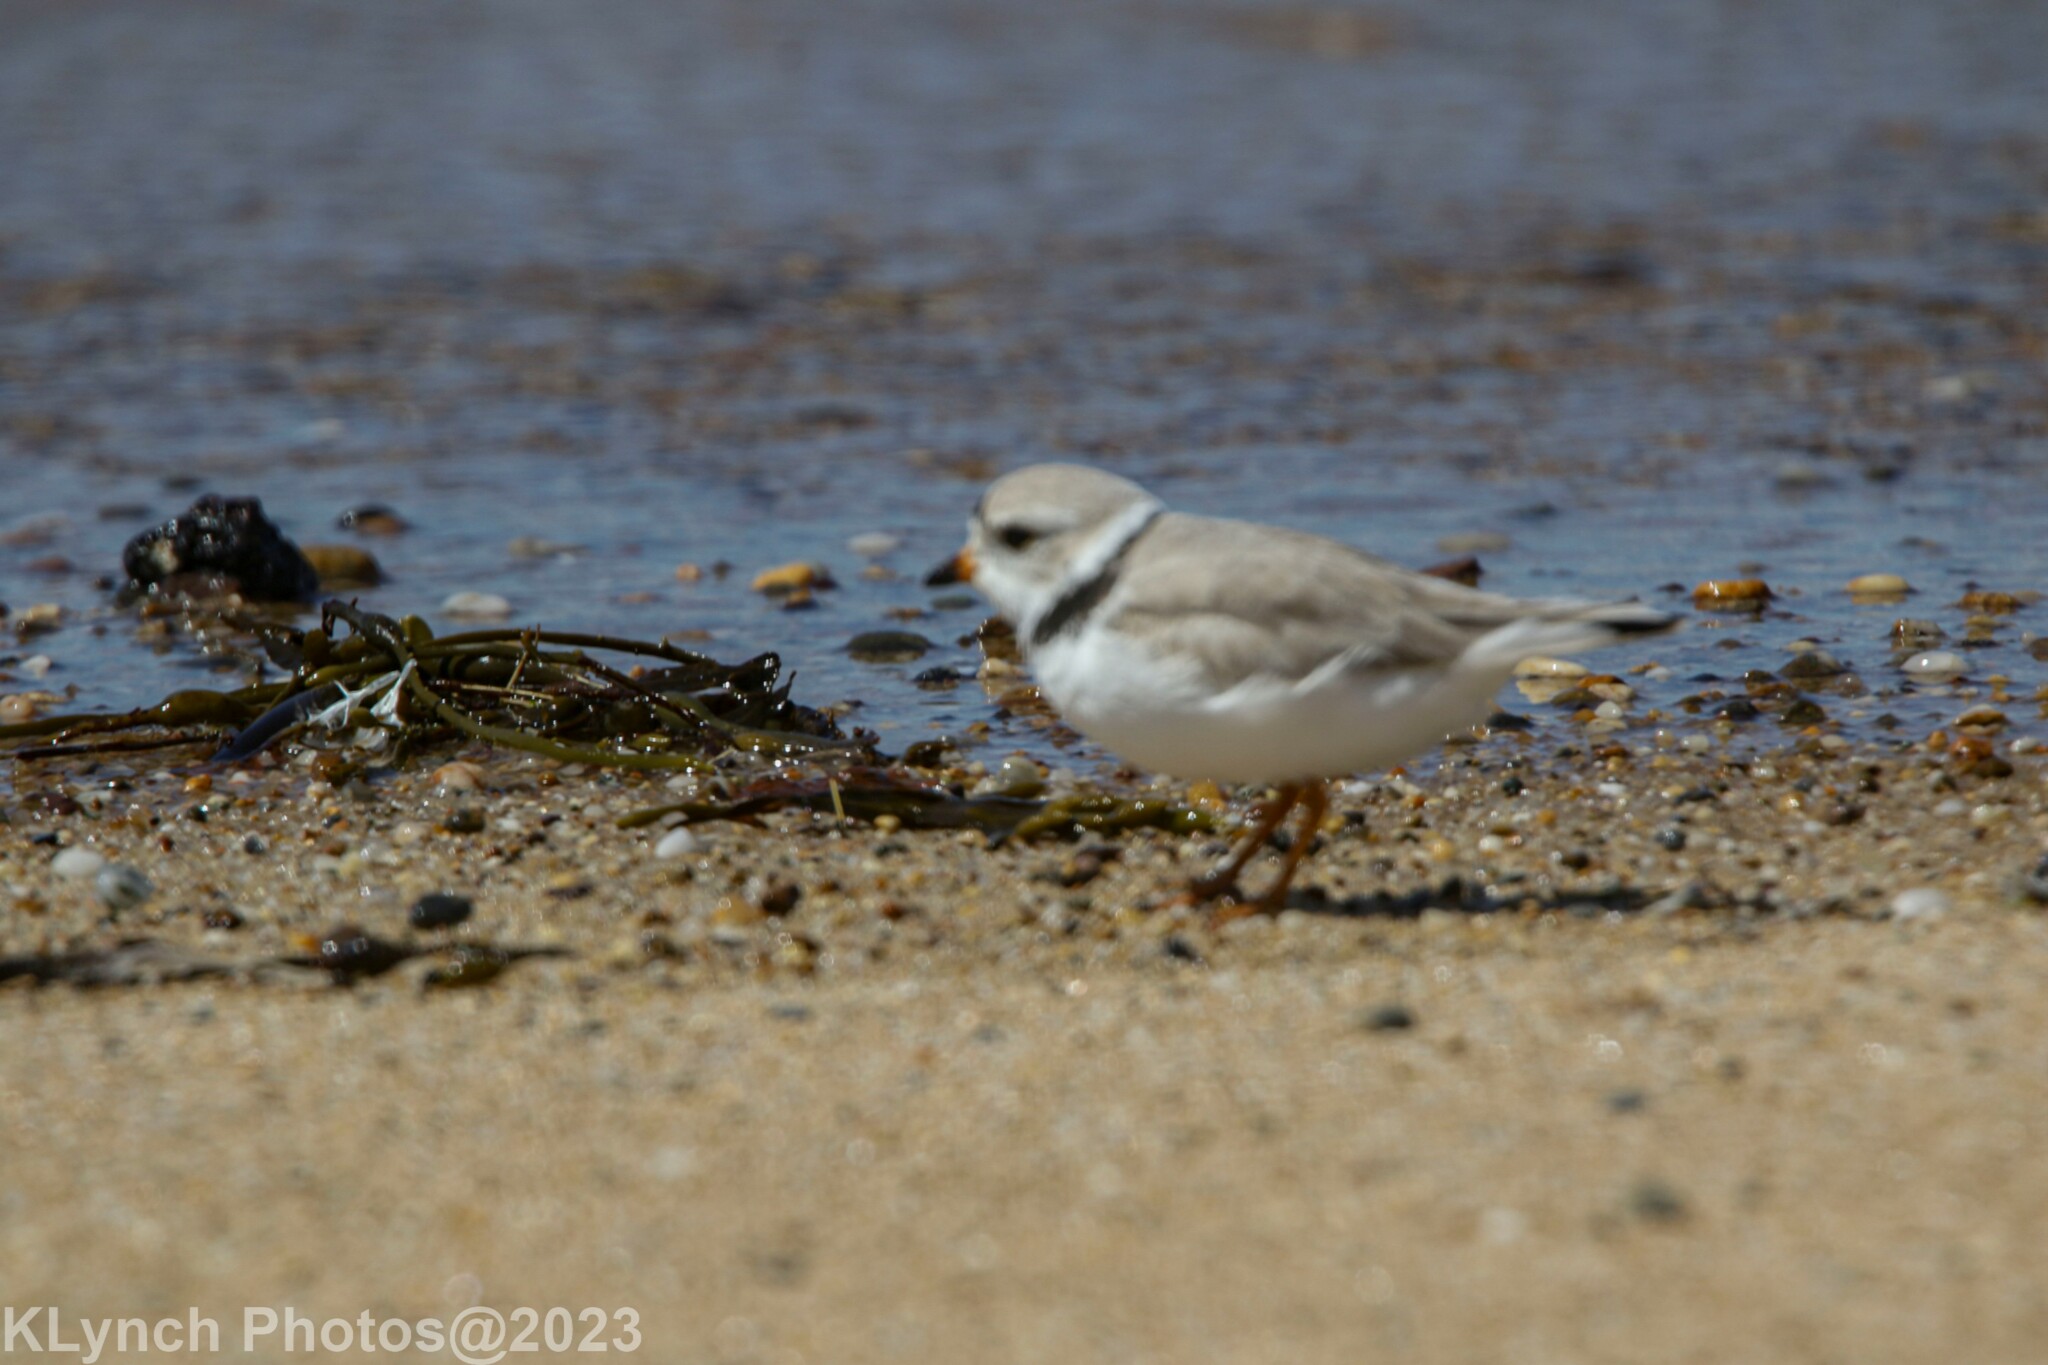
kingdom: Animalia
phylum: Chordata
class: Aves
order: Charadriiformes
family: Charadriidae
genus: Charadrius
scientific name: Charadrius melodus
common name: Piping plover
